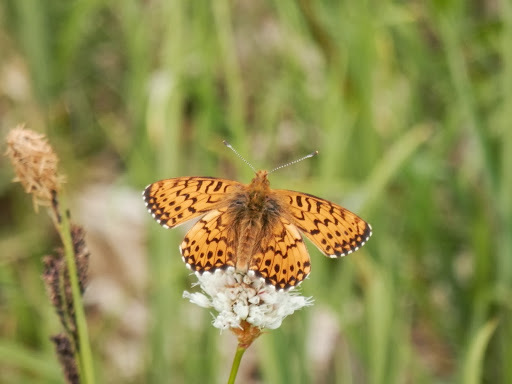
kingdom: Animalia
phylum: Arthropoda
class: Insecta
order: Lepidoptera
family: Nymphalidae
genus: Clossiana
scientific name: Clossiana chariclea
